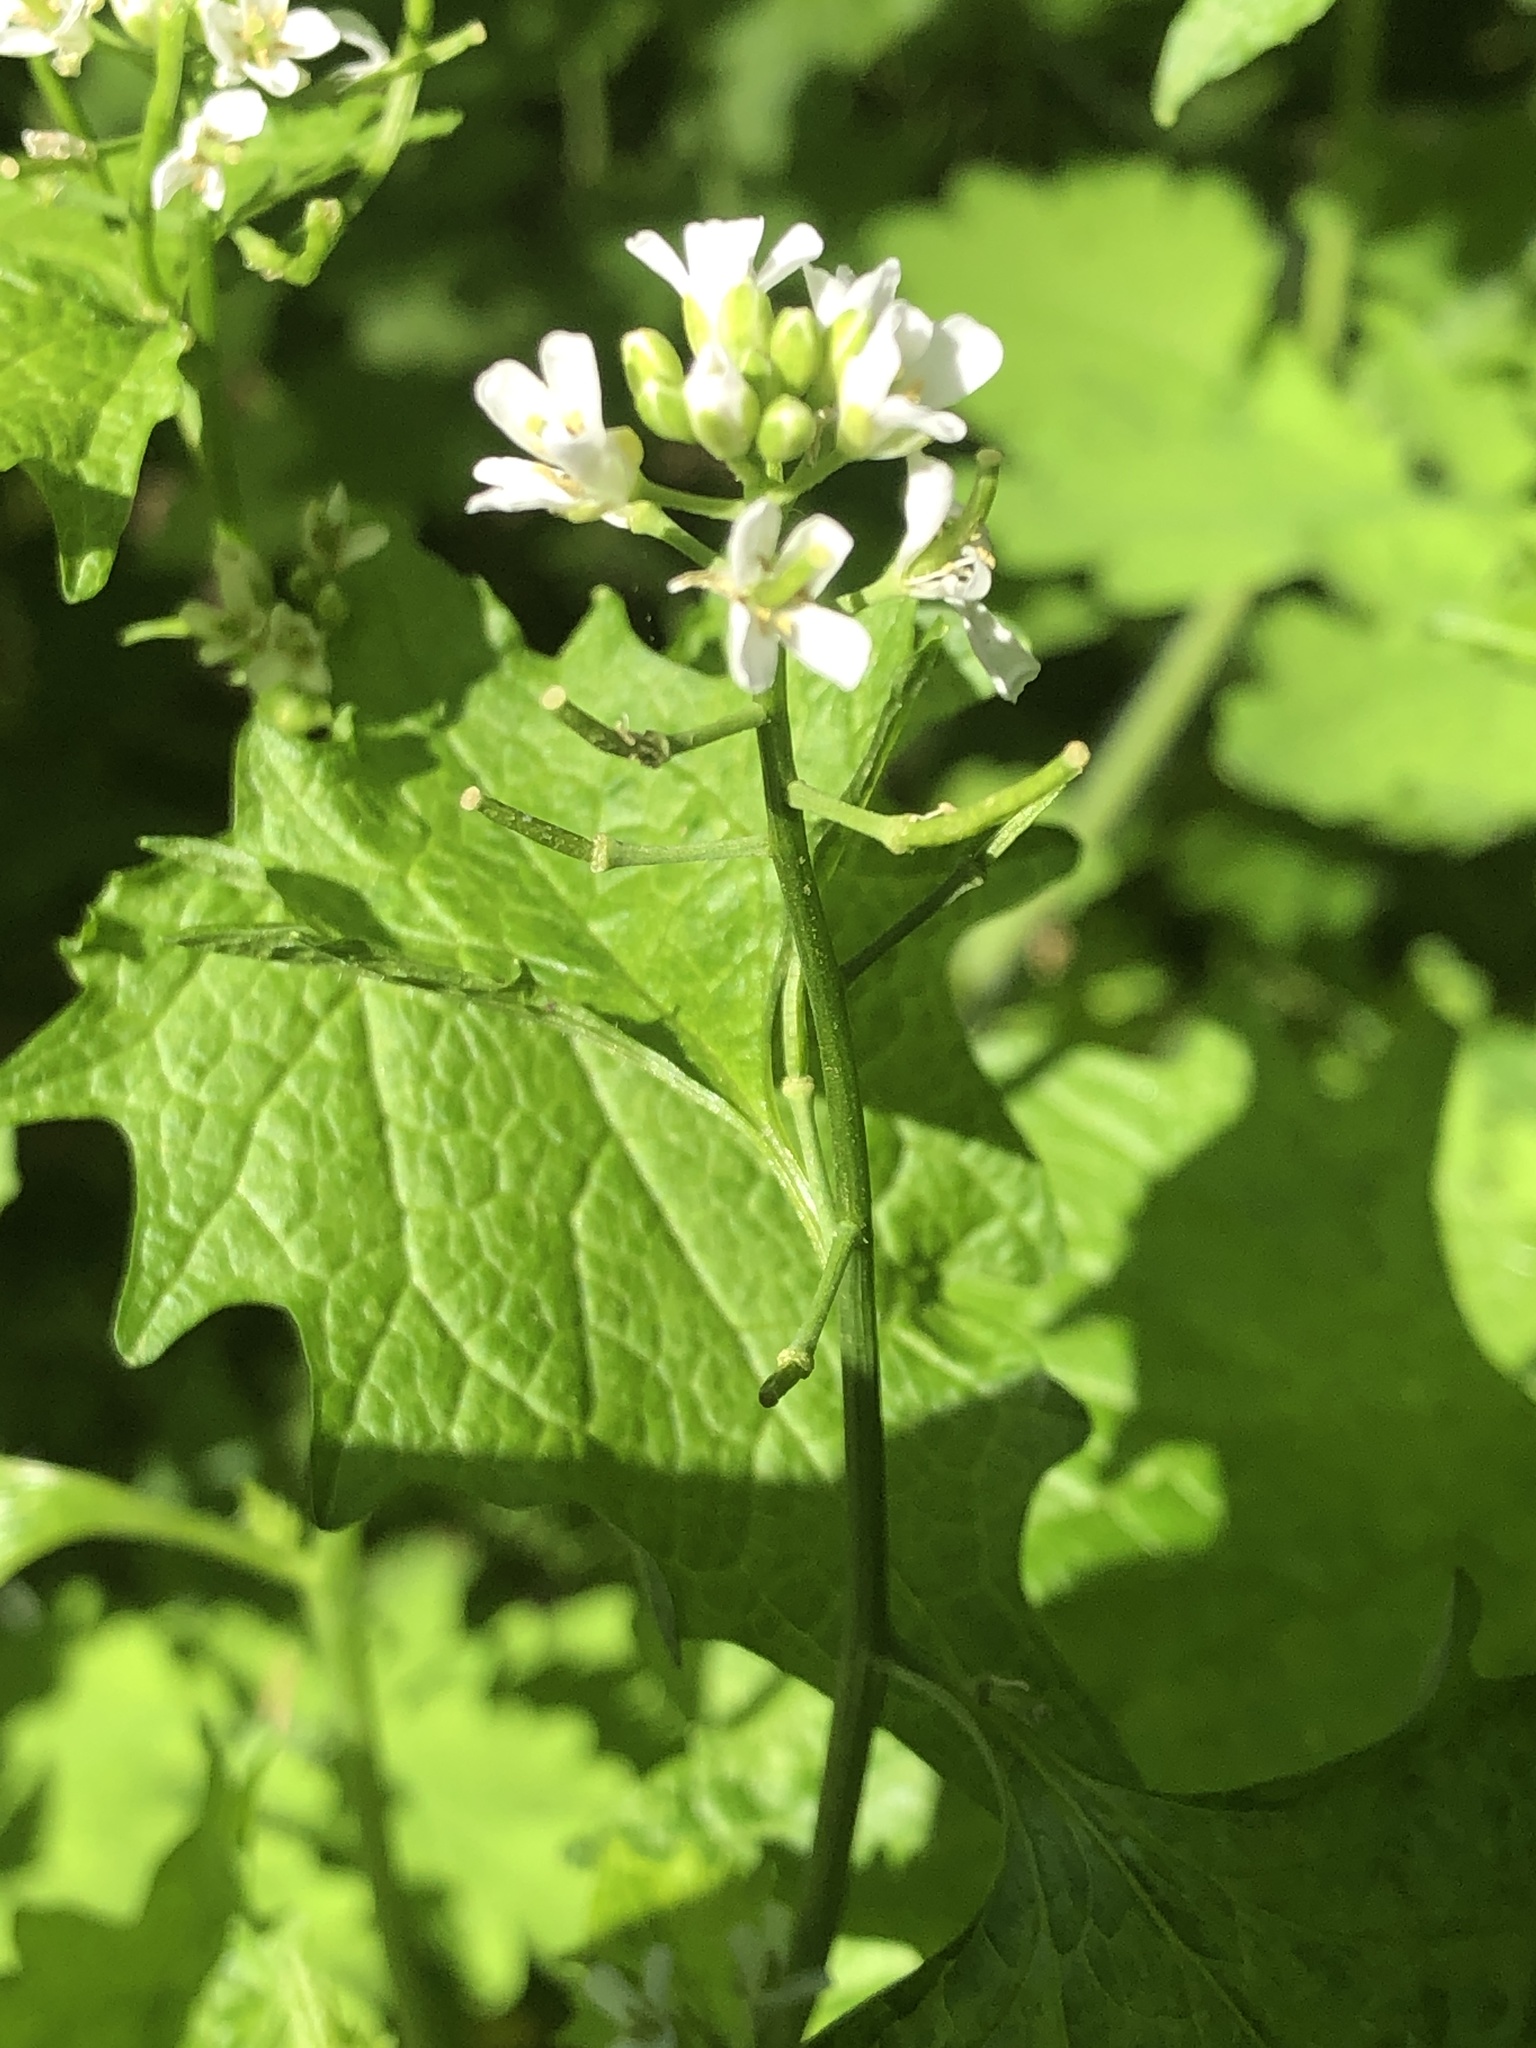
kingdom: Plantae
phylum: Tracheophyta
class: Magnoliopsida
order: Brassicales
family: Brassicaceae
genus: Alliaria
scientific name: Alliaria petiolata
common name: Garlic mustard
